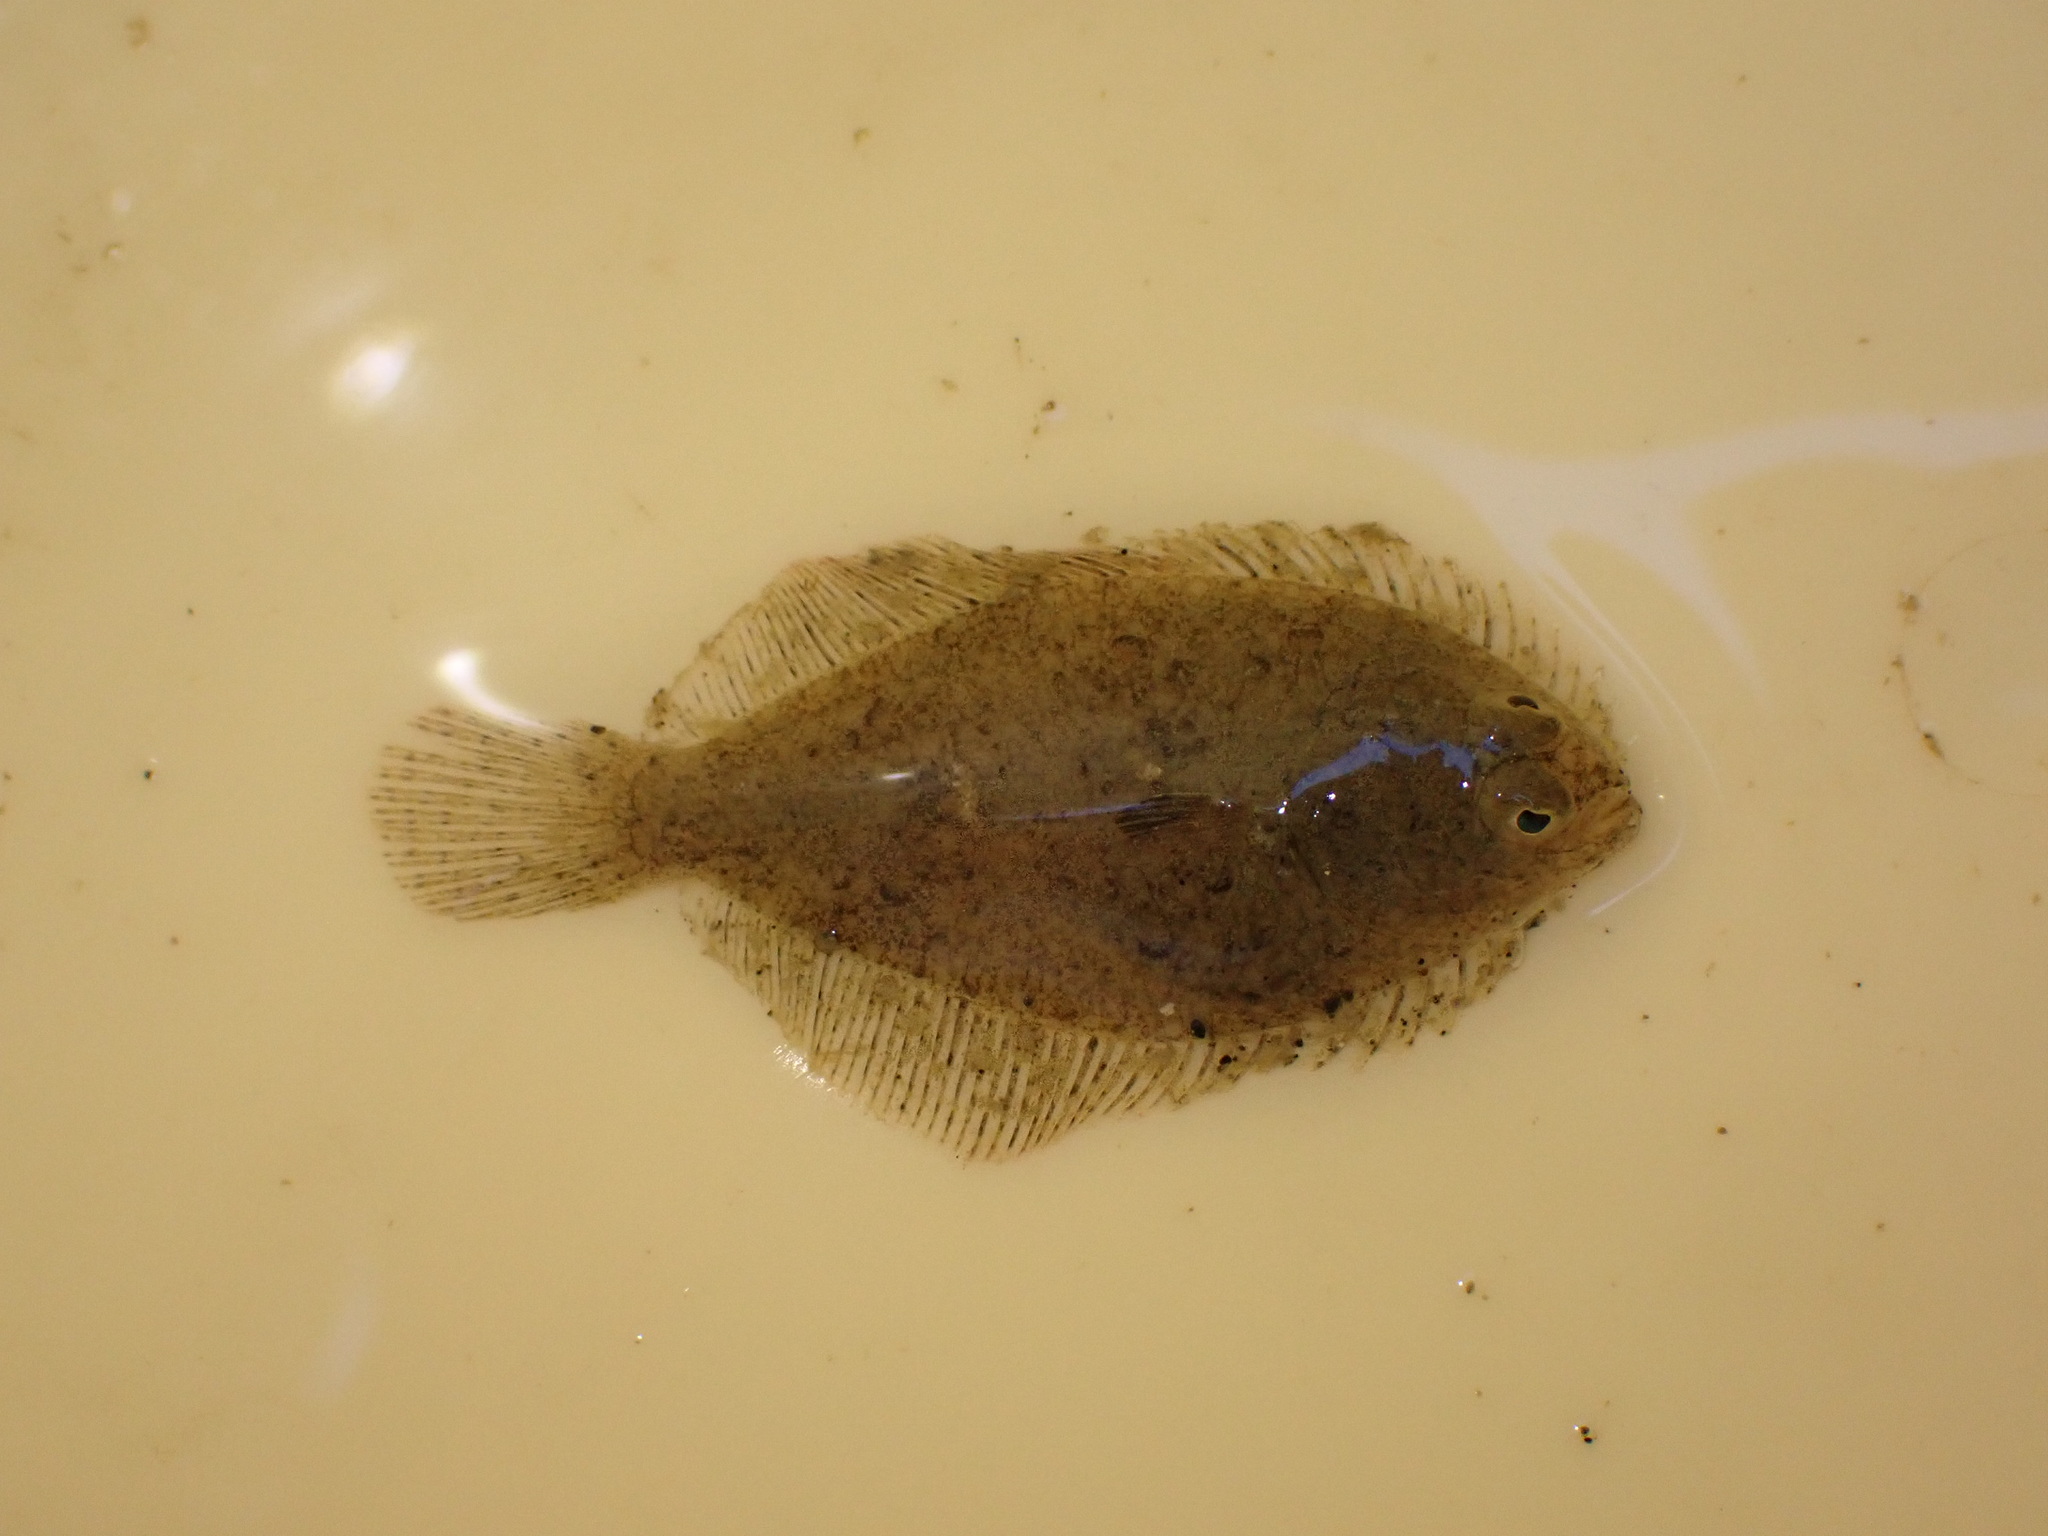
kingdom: Animalia
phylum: Chordata
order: Pleuronectiformes
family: Pleuronectidae
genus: Rhombosolea
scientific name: Rhombosolea
